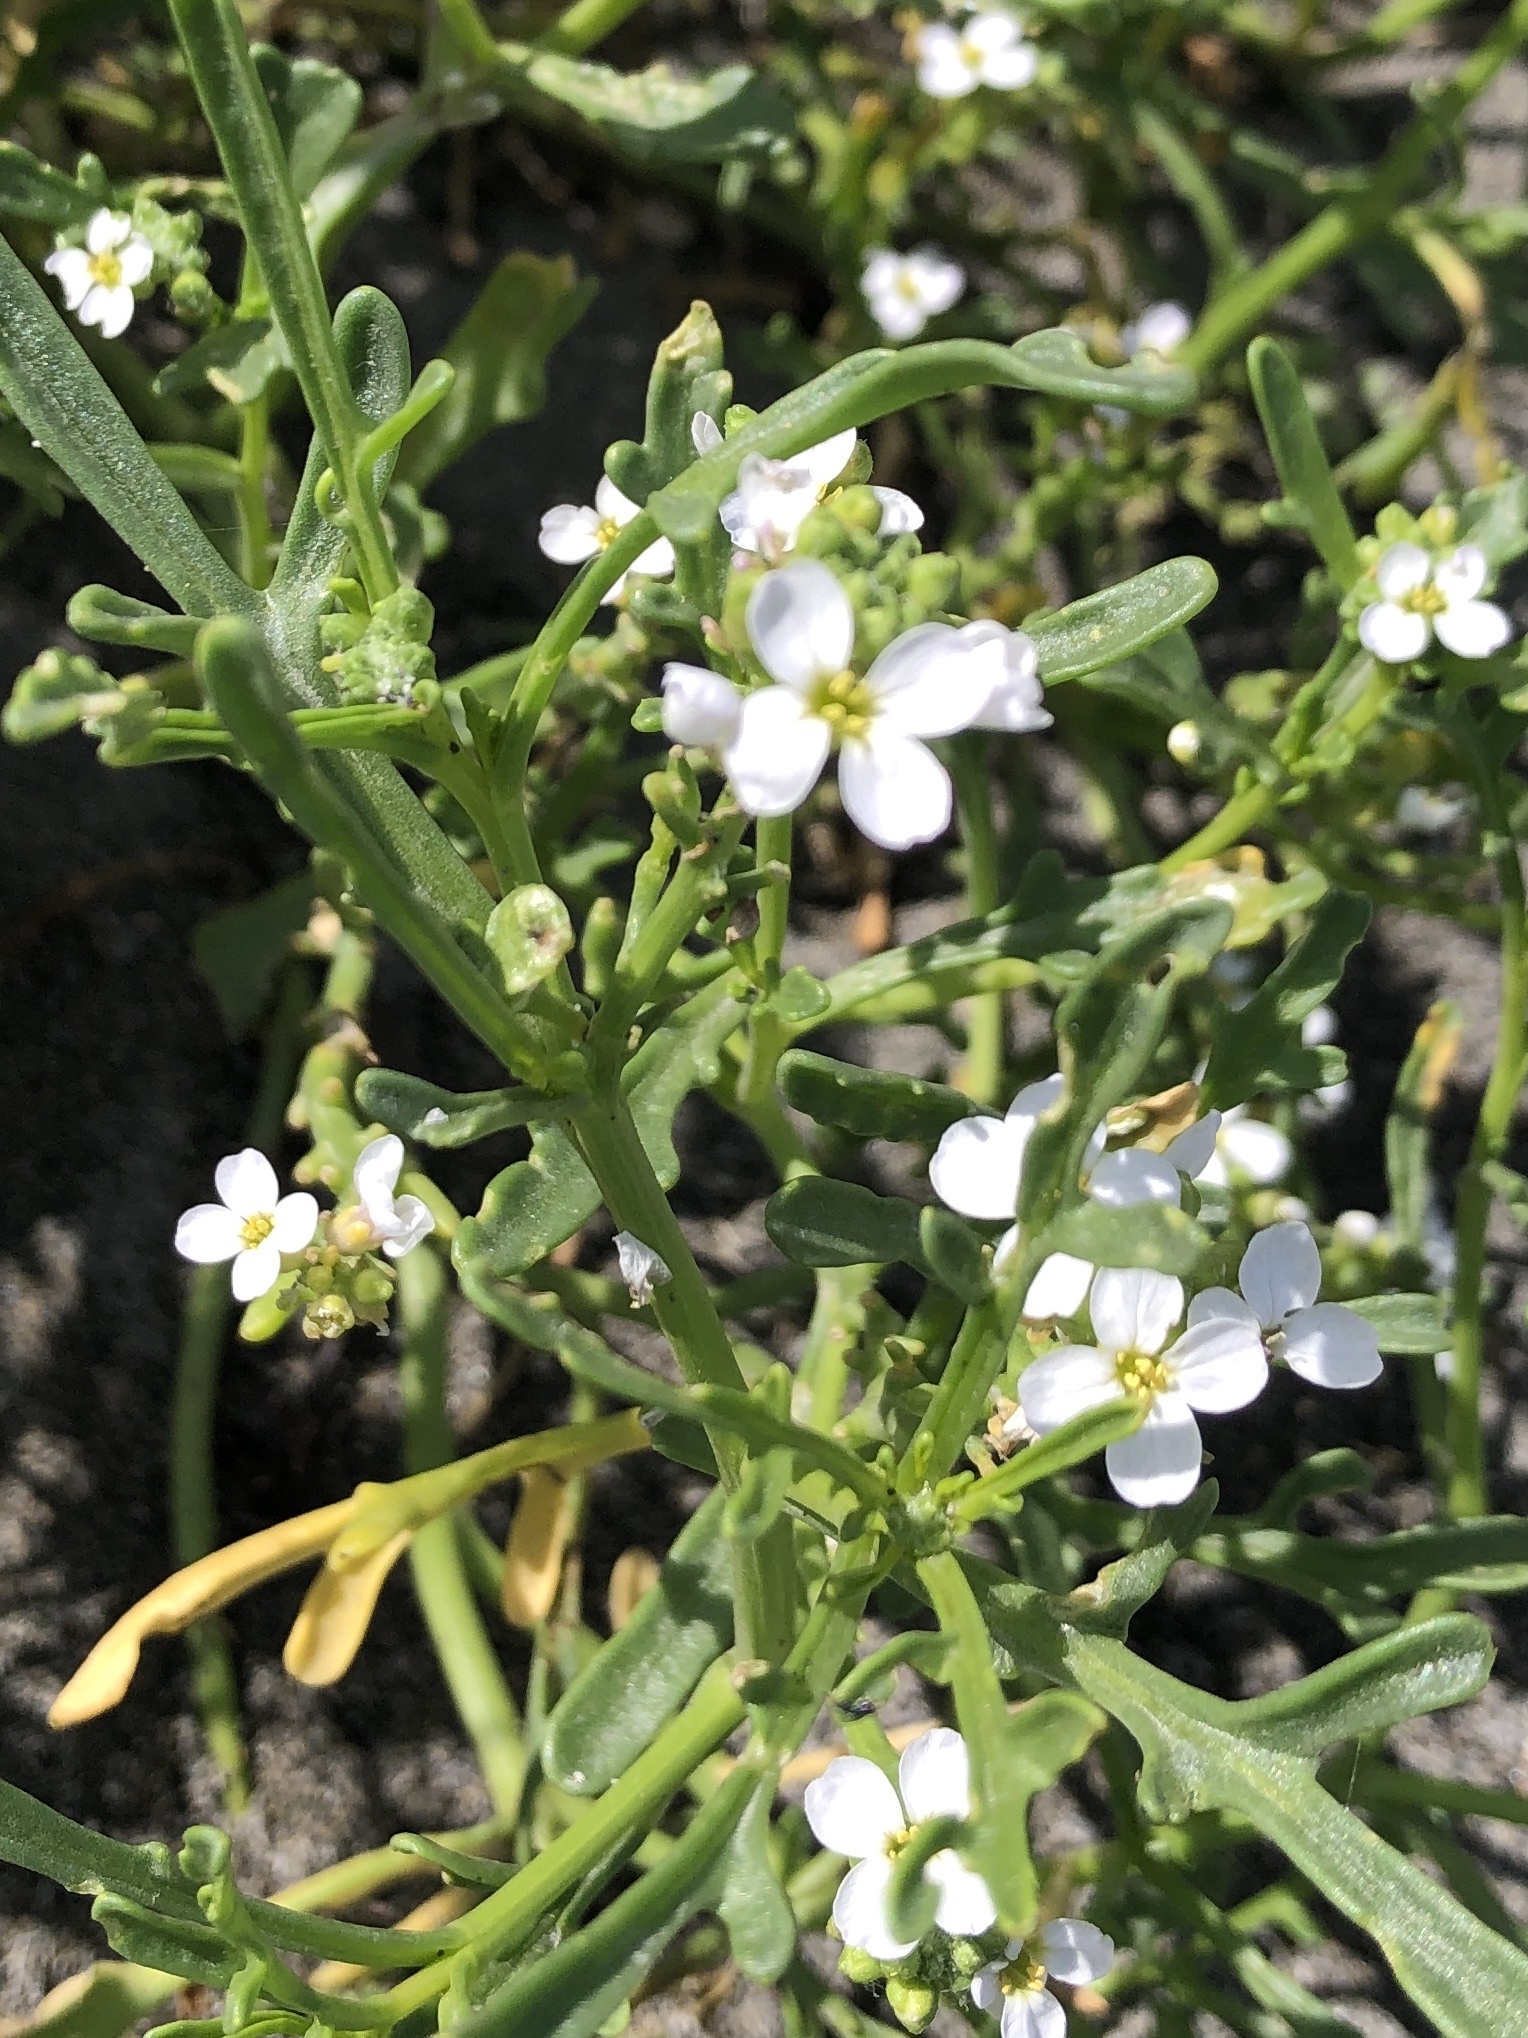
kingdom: Plantae
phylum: Tracheophyta
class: Magnoliopsida
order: Brassicales
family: Brassicaceae
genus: Cakile
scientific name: Cakile maritima
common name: Sea rocket
